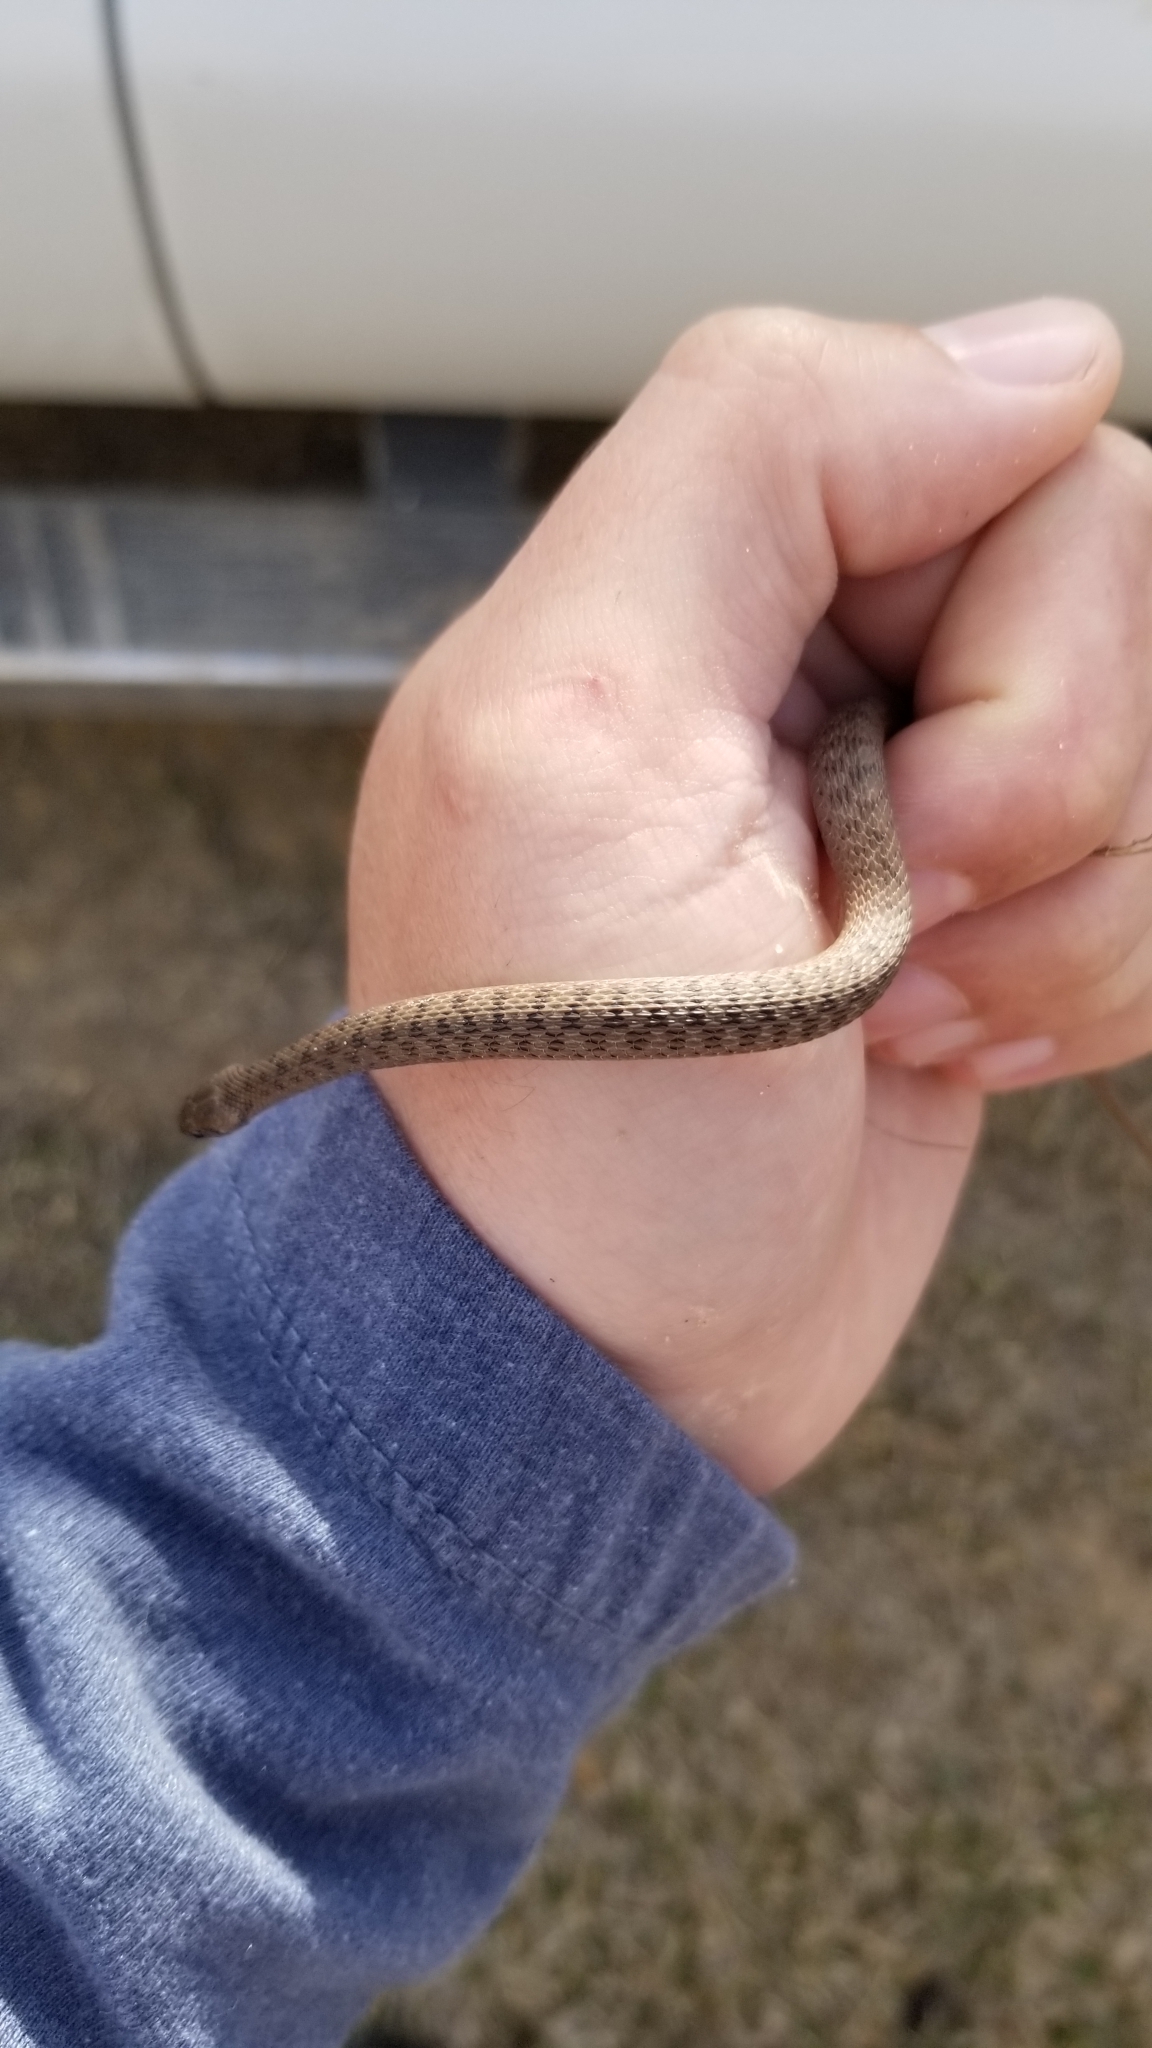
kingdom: Animalia
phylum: Chordata
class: Squamata
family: Colubridae
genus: Storeria
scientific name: Storeria dekayi
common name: (dekay’s) brown snake
